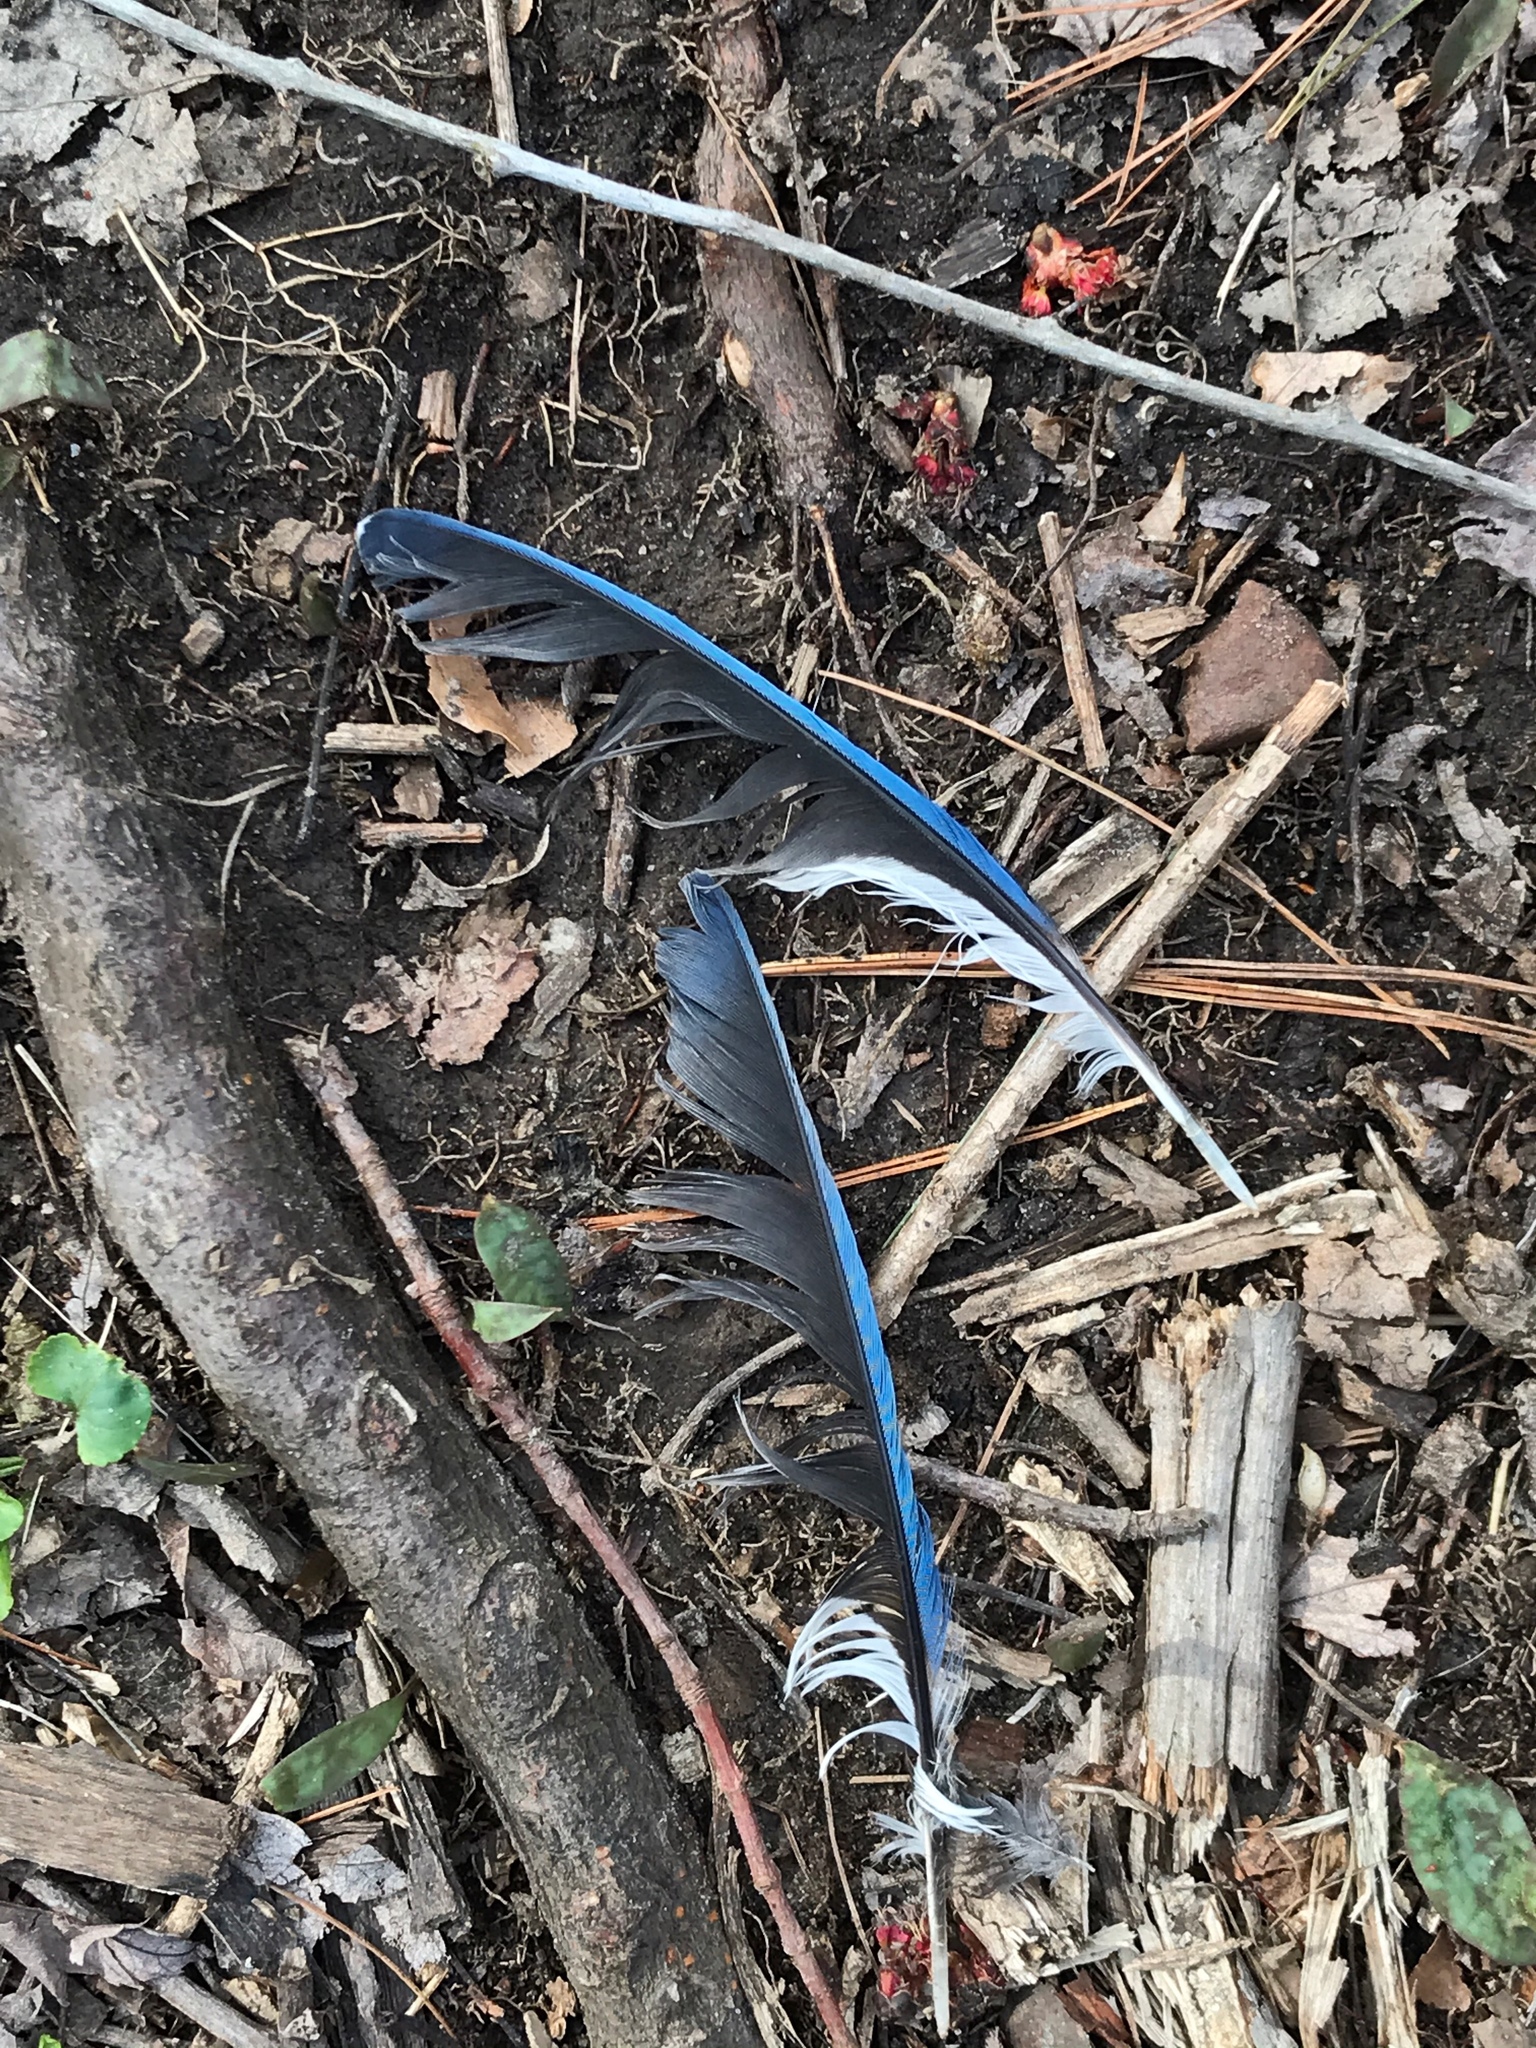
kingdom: Animalia
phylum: Chordata
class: Aves
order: Passeriformes
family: Corvidae
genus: Cyanocitta
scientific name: Cyanocitta cristata
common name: Blue jay
